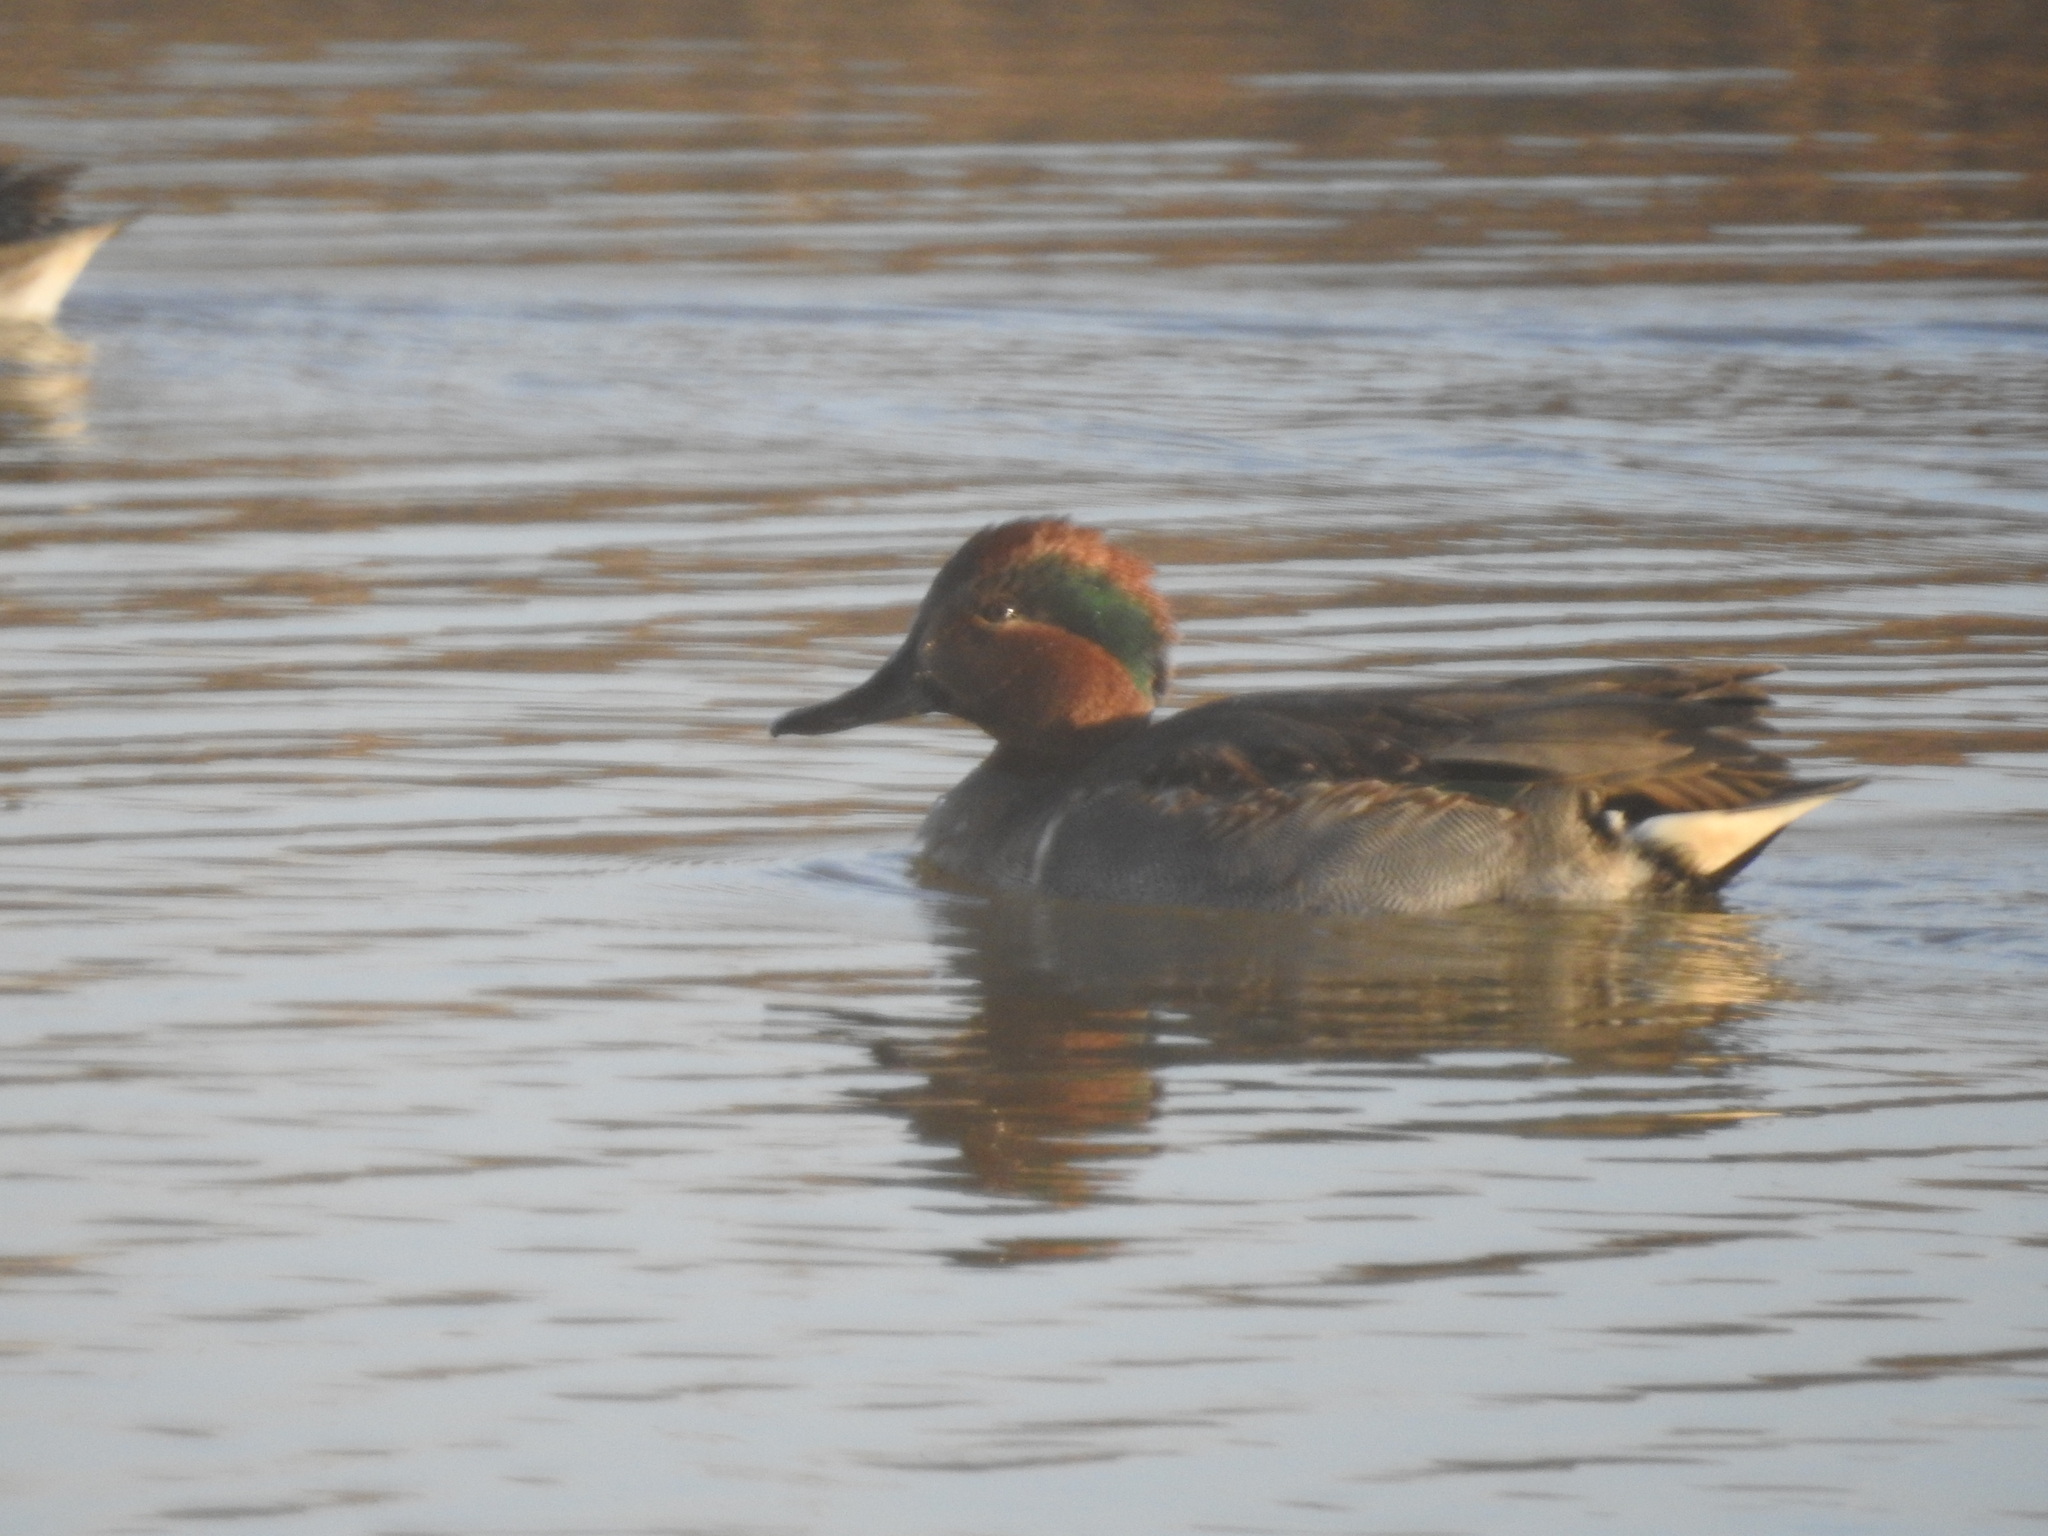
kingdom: Animalia
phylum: Chordata
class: Aves
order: Anseriformes
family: Anatidae
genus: Anas
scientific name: Anas crecca
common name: Eurasian teal
